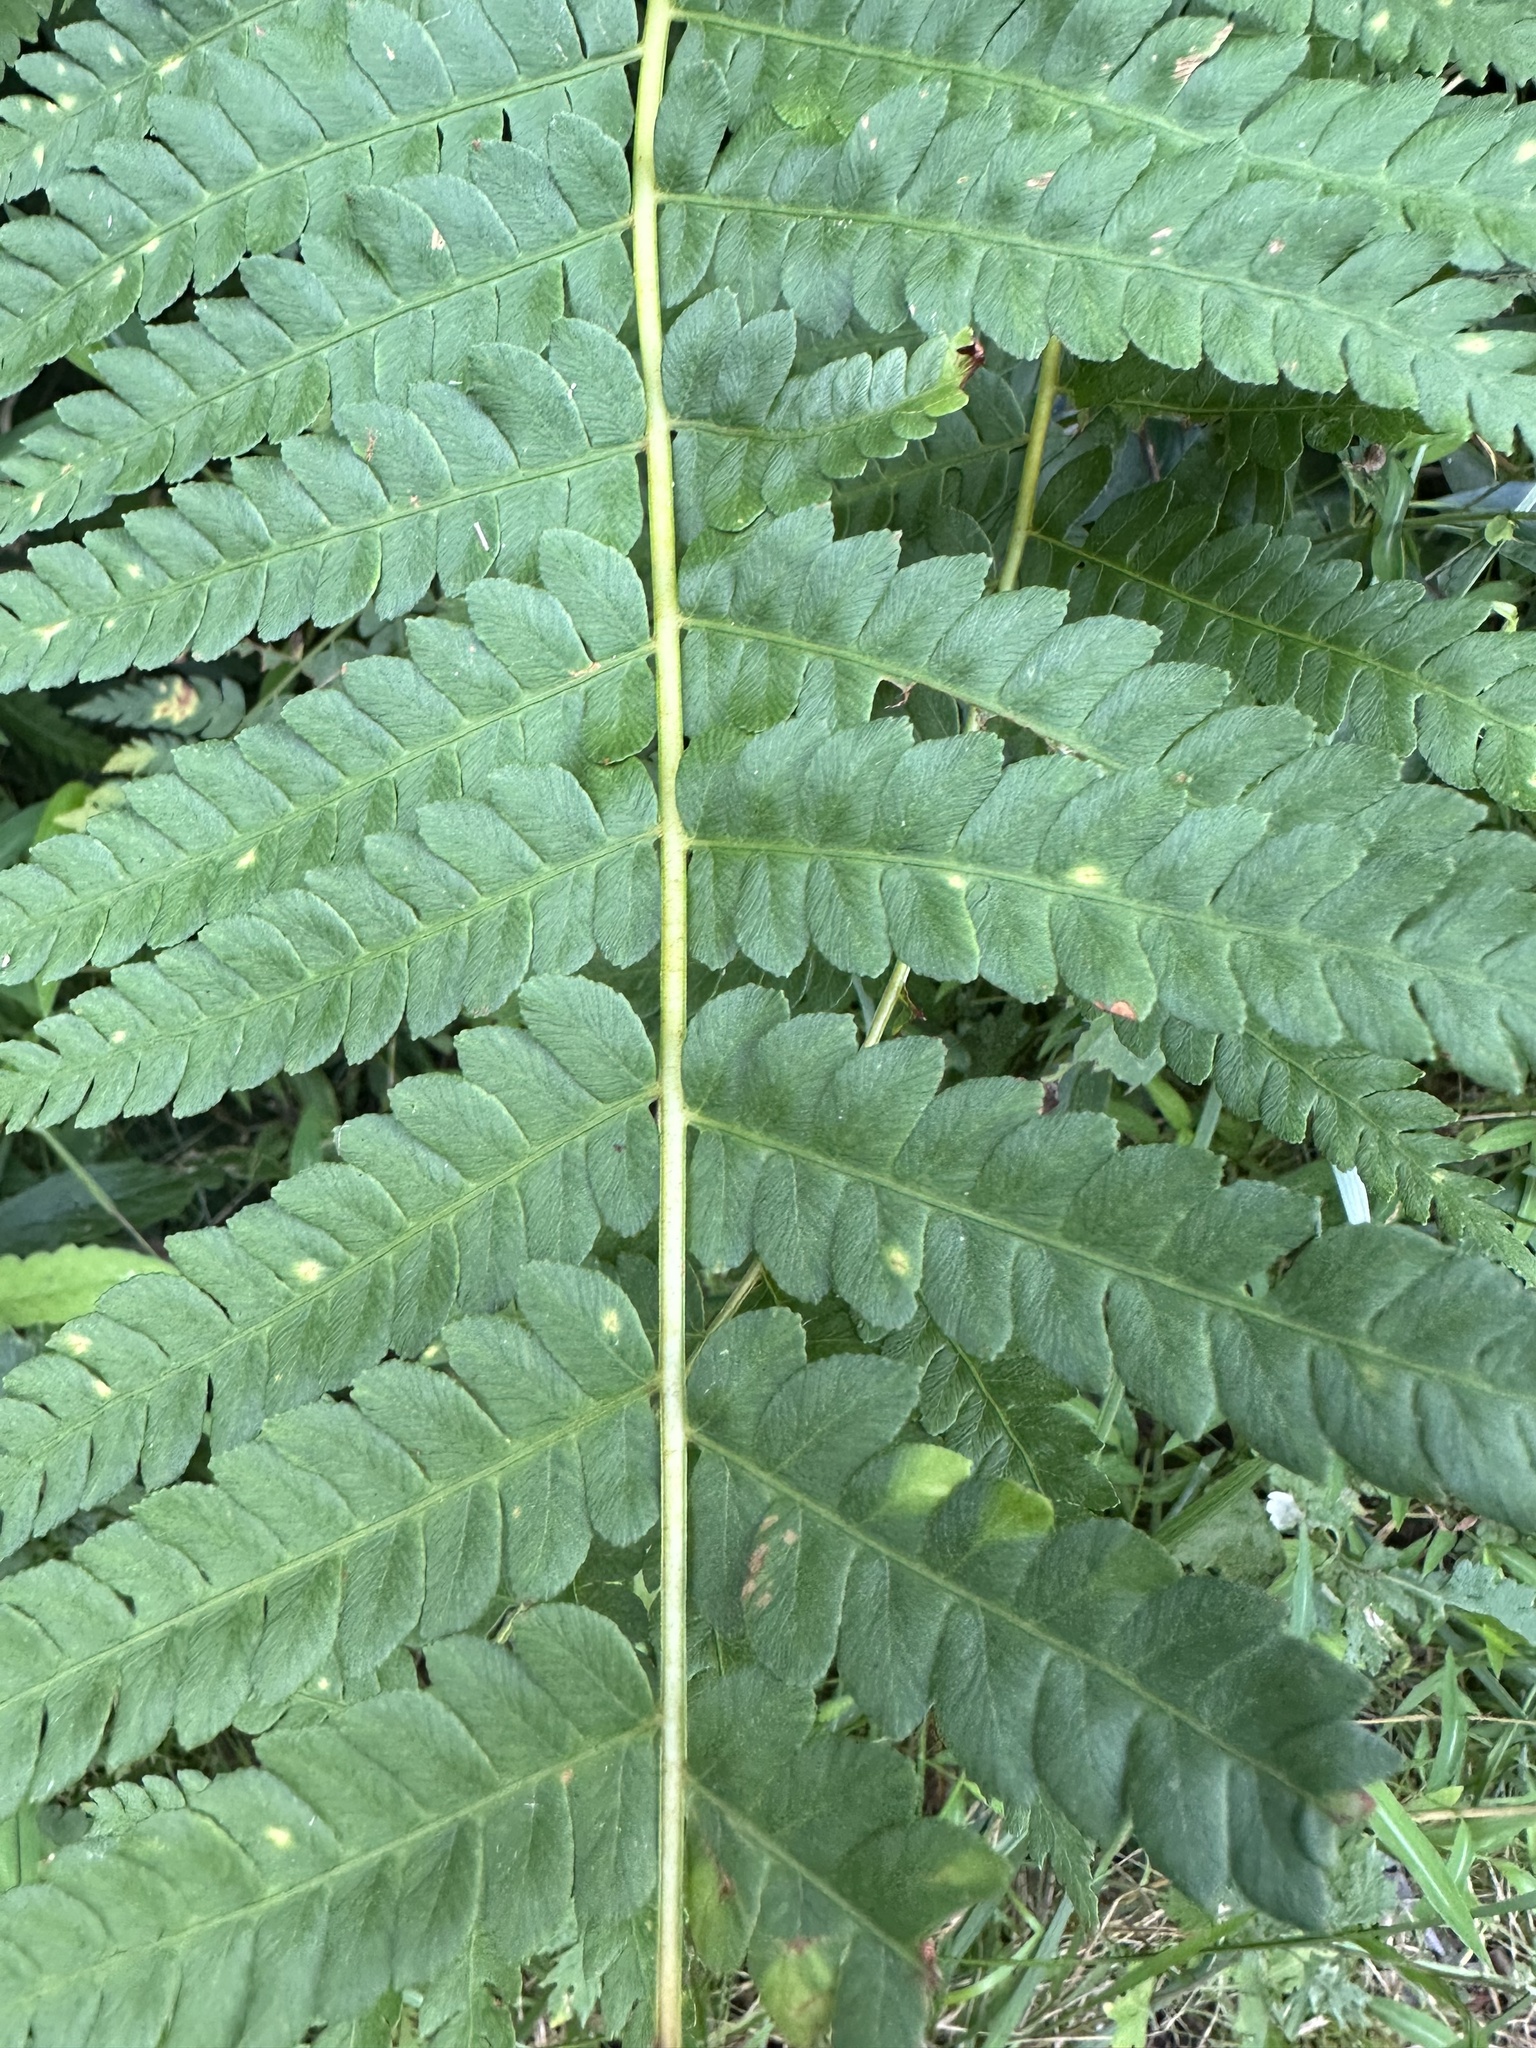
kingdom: Plantae
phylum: Tracheophyta
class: Polypodiopsida
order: Osmundales
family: Osmundaceae
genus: Osmundastrum
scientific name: Osmundastrum cinnamomeum
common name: Cinnamon fern
